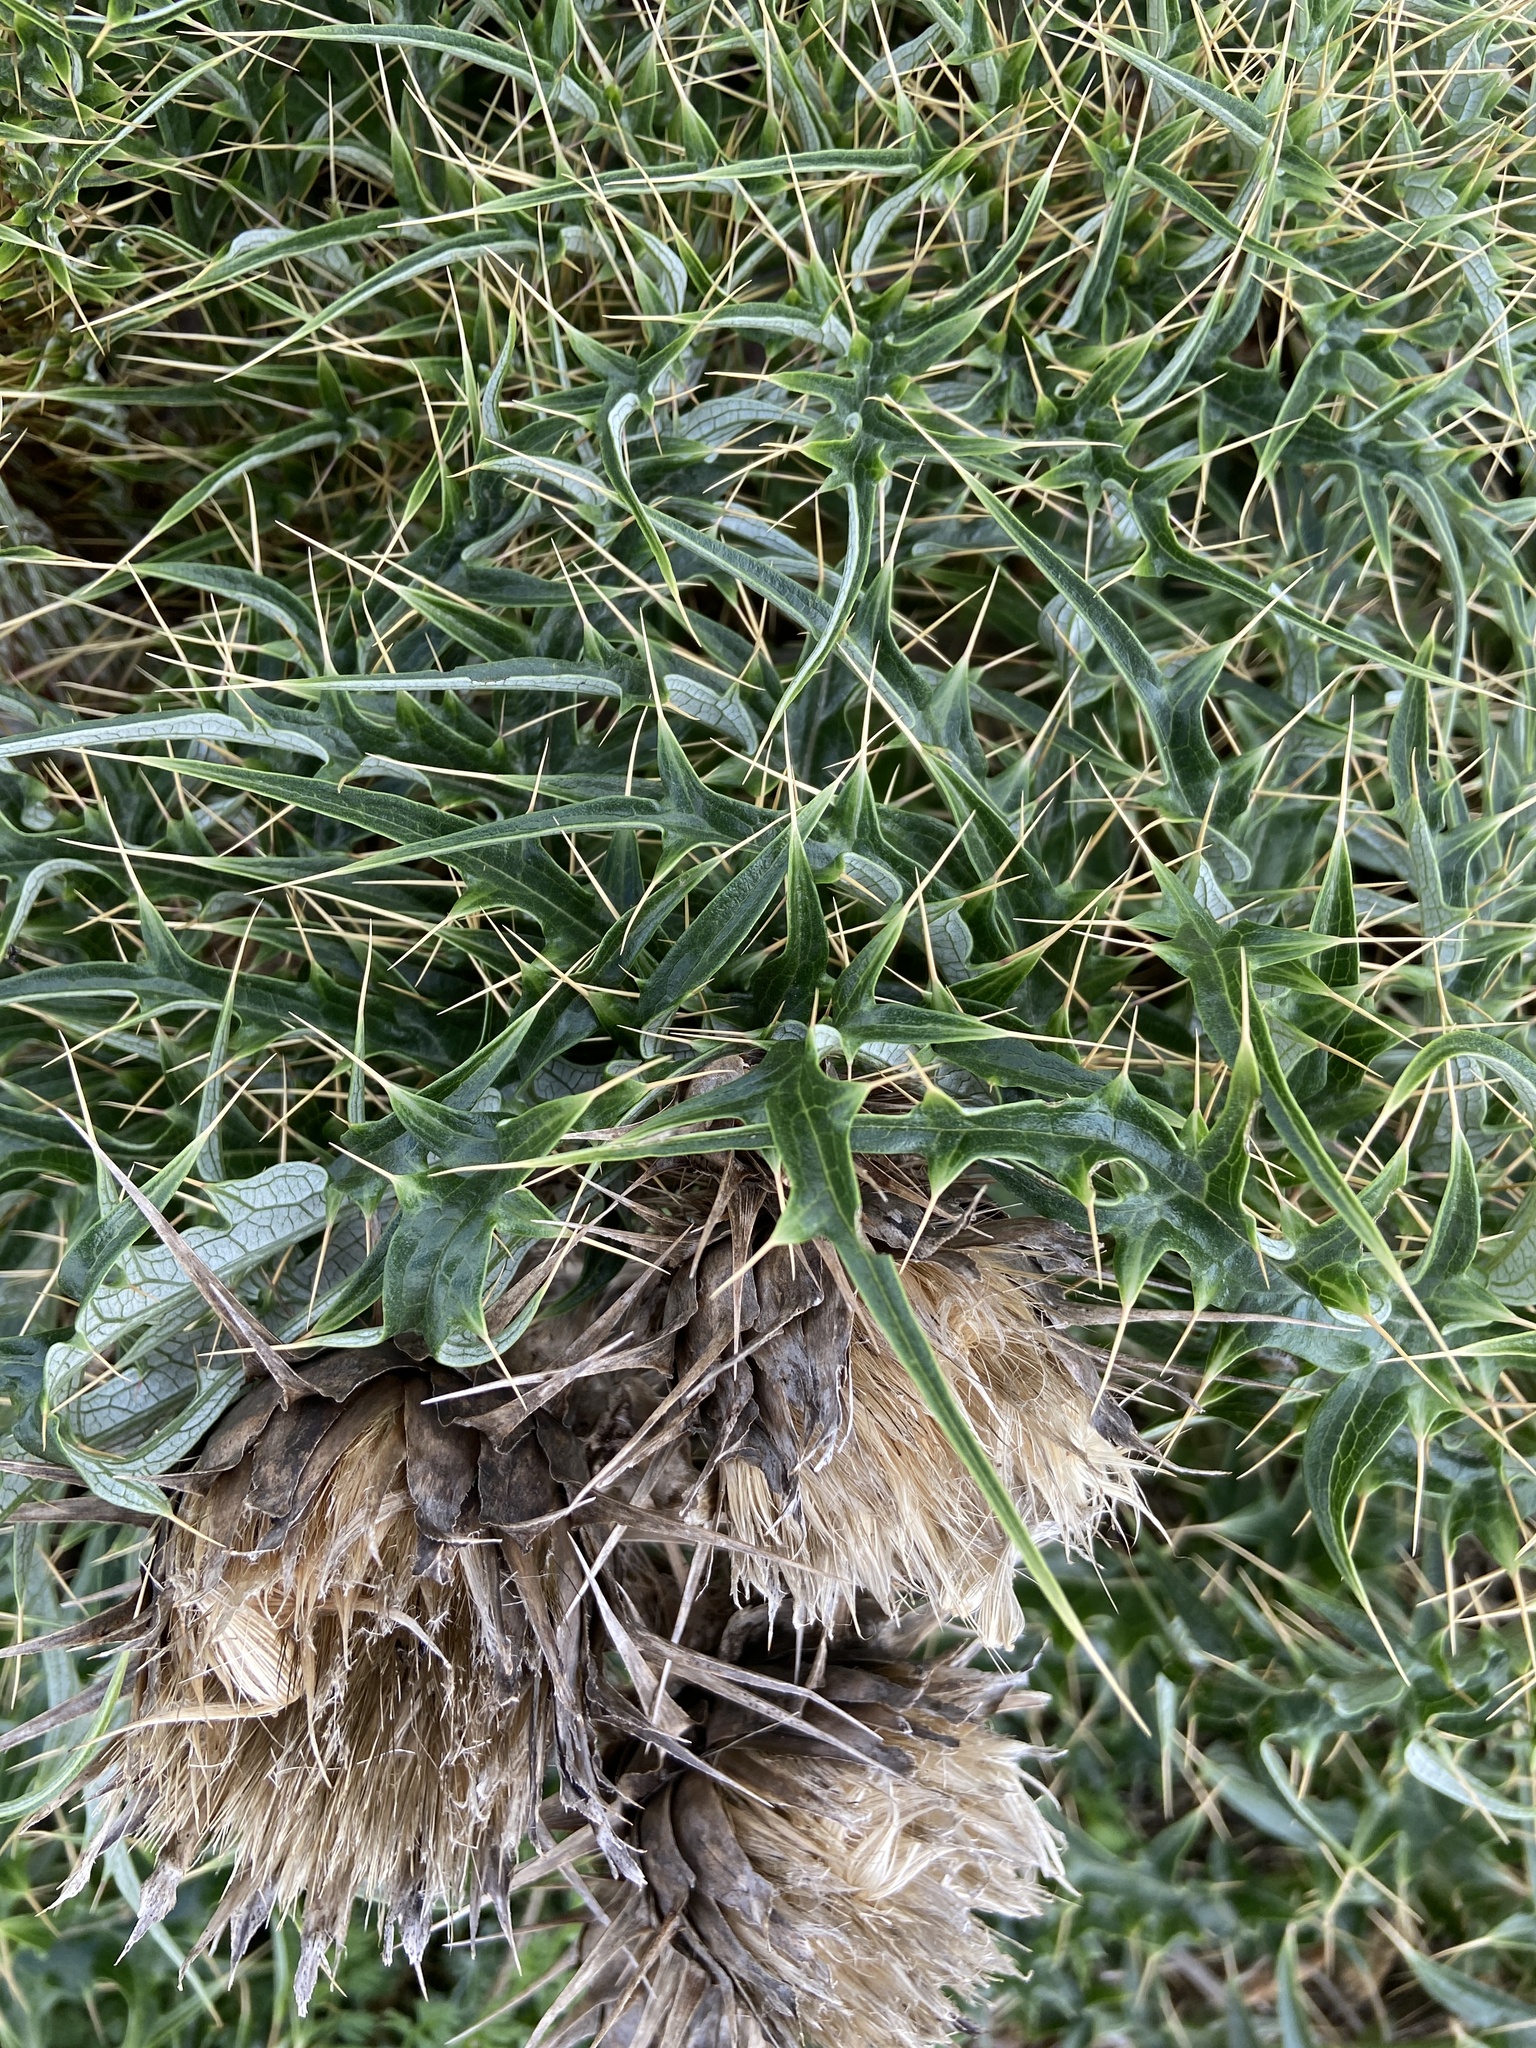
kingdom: Plantae
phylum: Tracheophyta
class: Magnoliopsida
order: Asterales
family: Asteraceae
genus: Cynara
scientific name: Cynara cardunculus
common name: Globe artichoke
